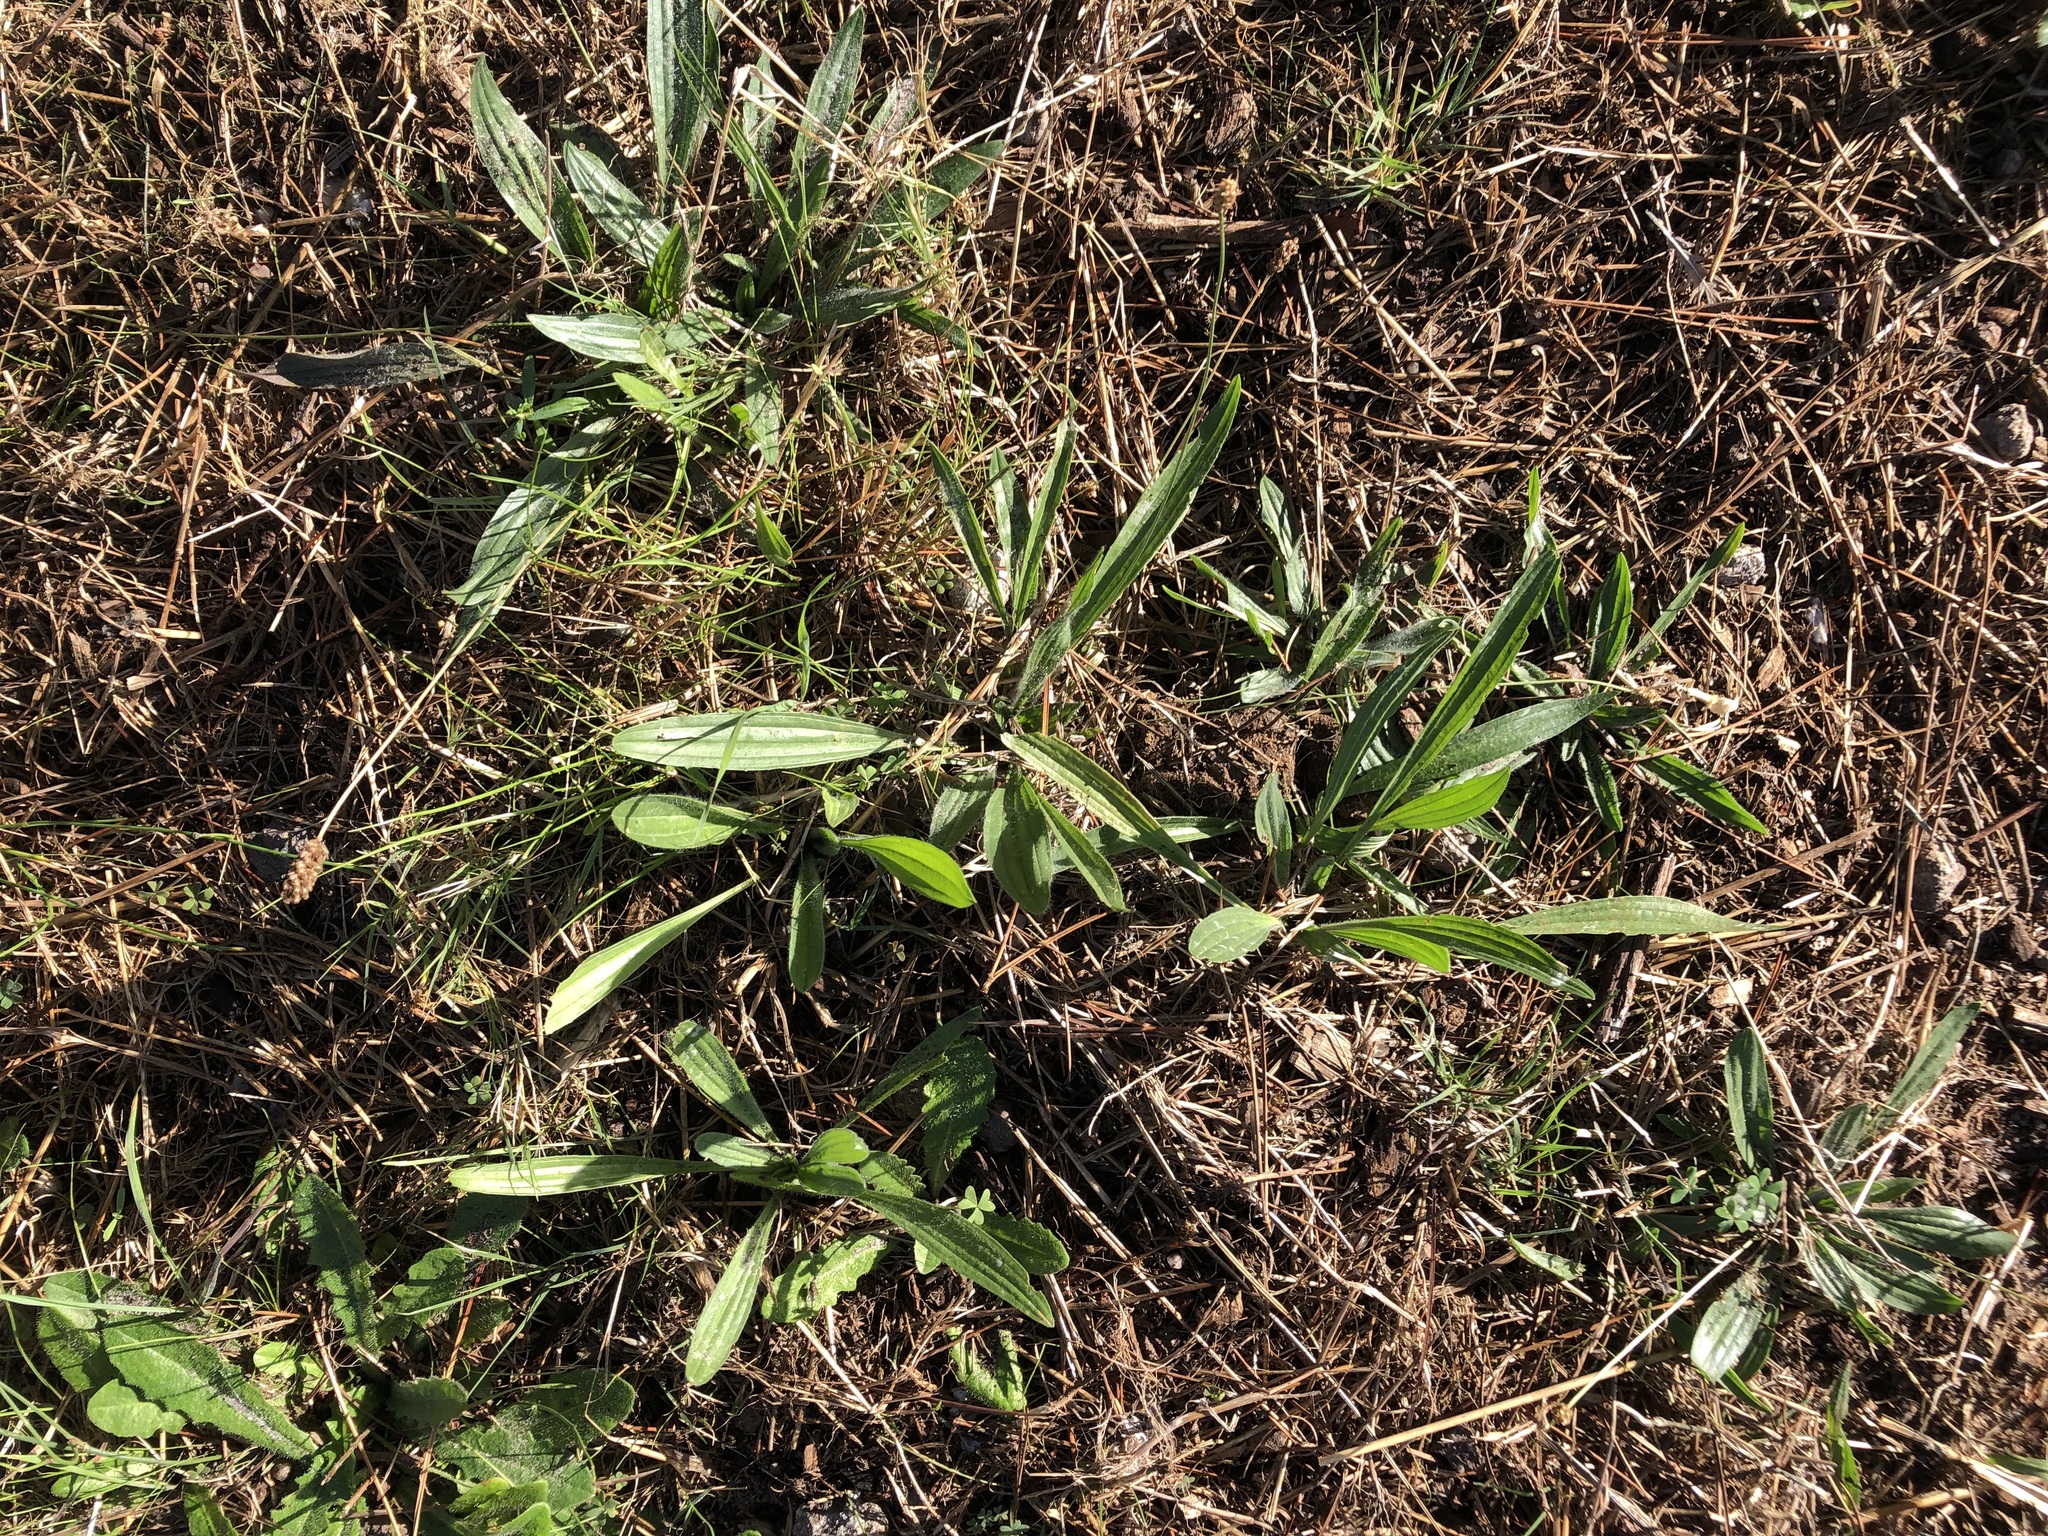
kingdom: Plantae
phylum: Tracheophyta
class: Magnoliopsida
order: Lamiales
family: Plantaginaceae
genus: Plantago
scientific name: Plantago lanceolata
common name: Ribwort plantain
